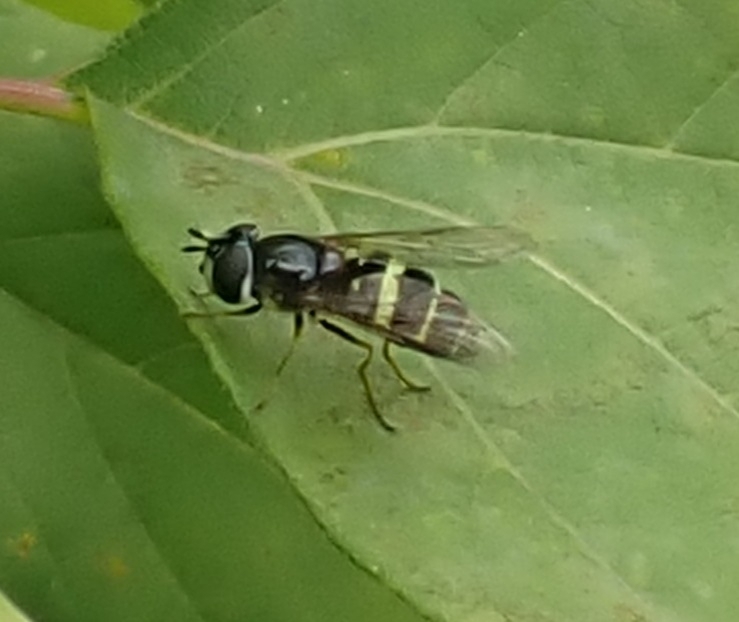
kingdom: Animalia
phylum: Arthropoda
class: Insecta
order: Diptera
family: Syrphidae
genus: Dasysyrphus
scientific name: Dasysyrphus tricinctus
